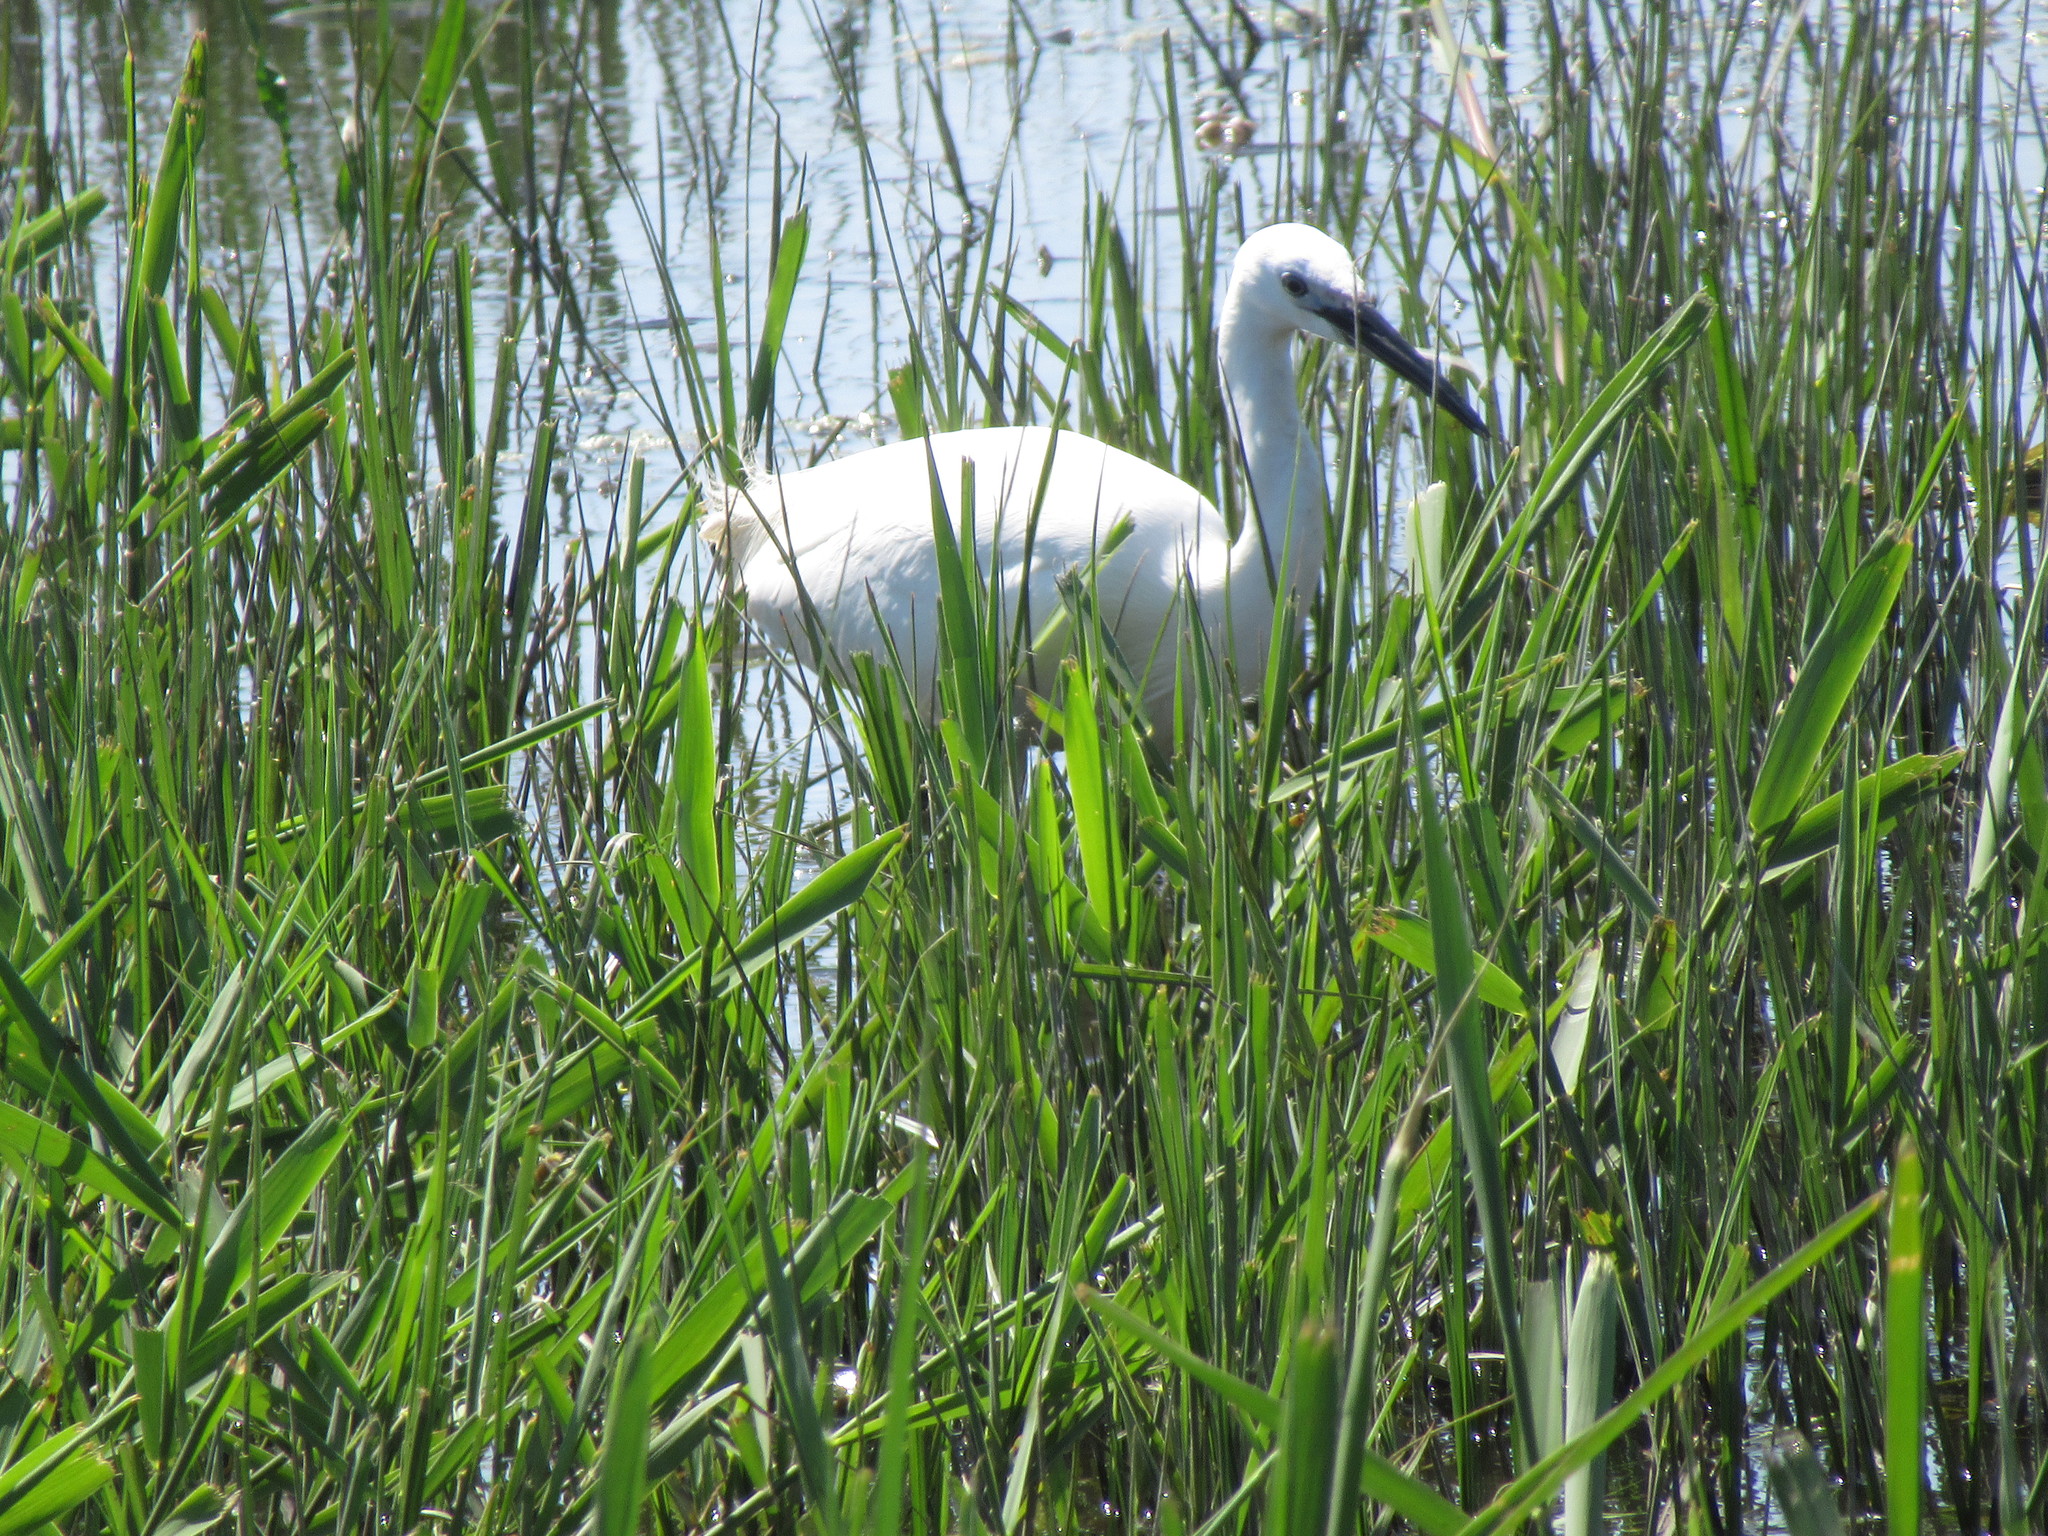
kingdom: Animalia
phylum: Chordata
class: Aves
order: Pelecaniformes
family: Ardeidae
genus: Egretta
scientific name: Egretta garzetta
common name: Little egret
